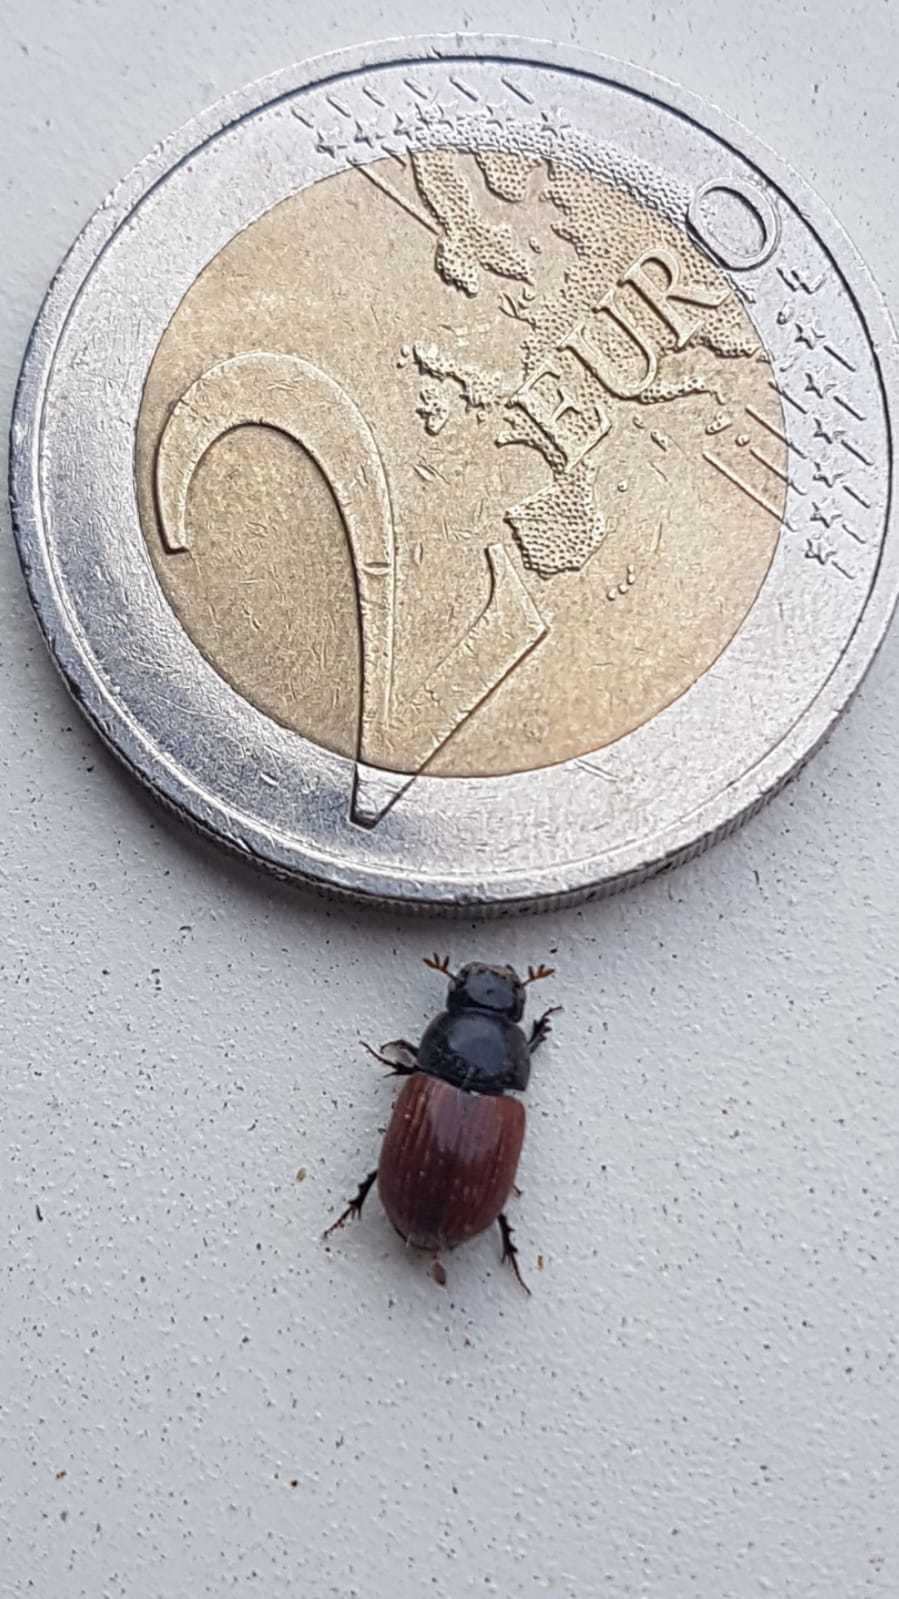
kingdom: Animalia
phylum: Arthropoda
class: Insecta
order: Coleoptera
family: Scarabaeidae
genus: Aphodius
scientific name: Aphodius fimetarius
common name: Common dung beetle
